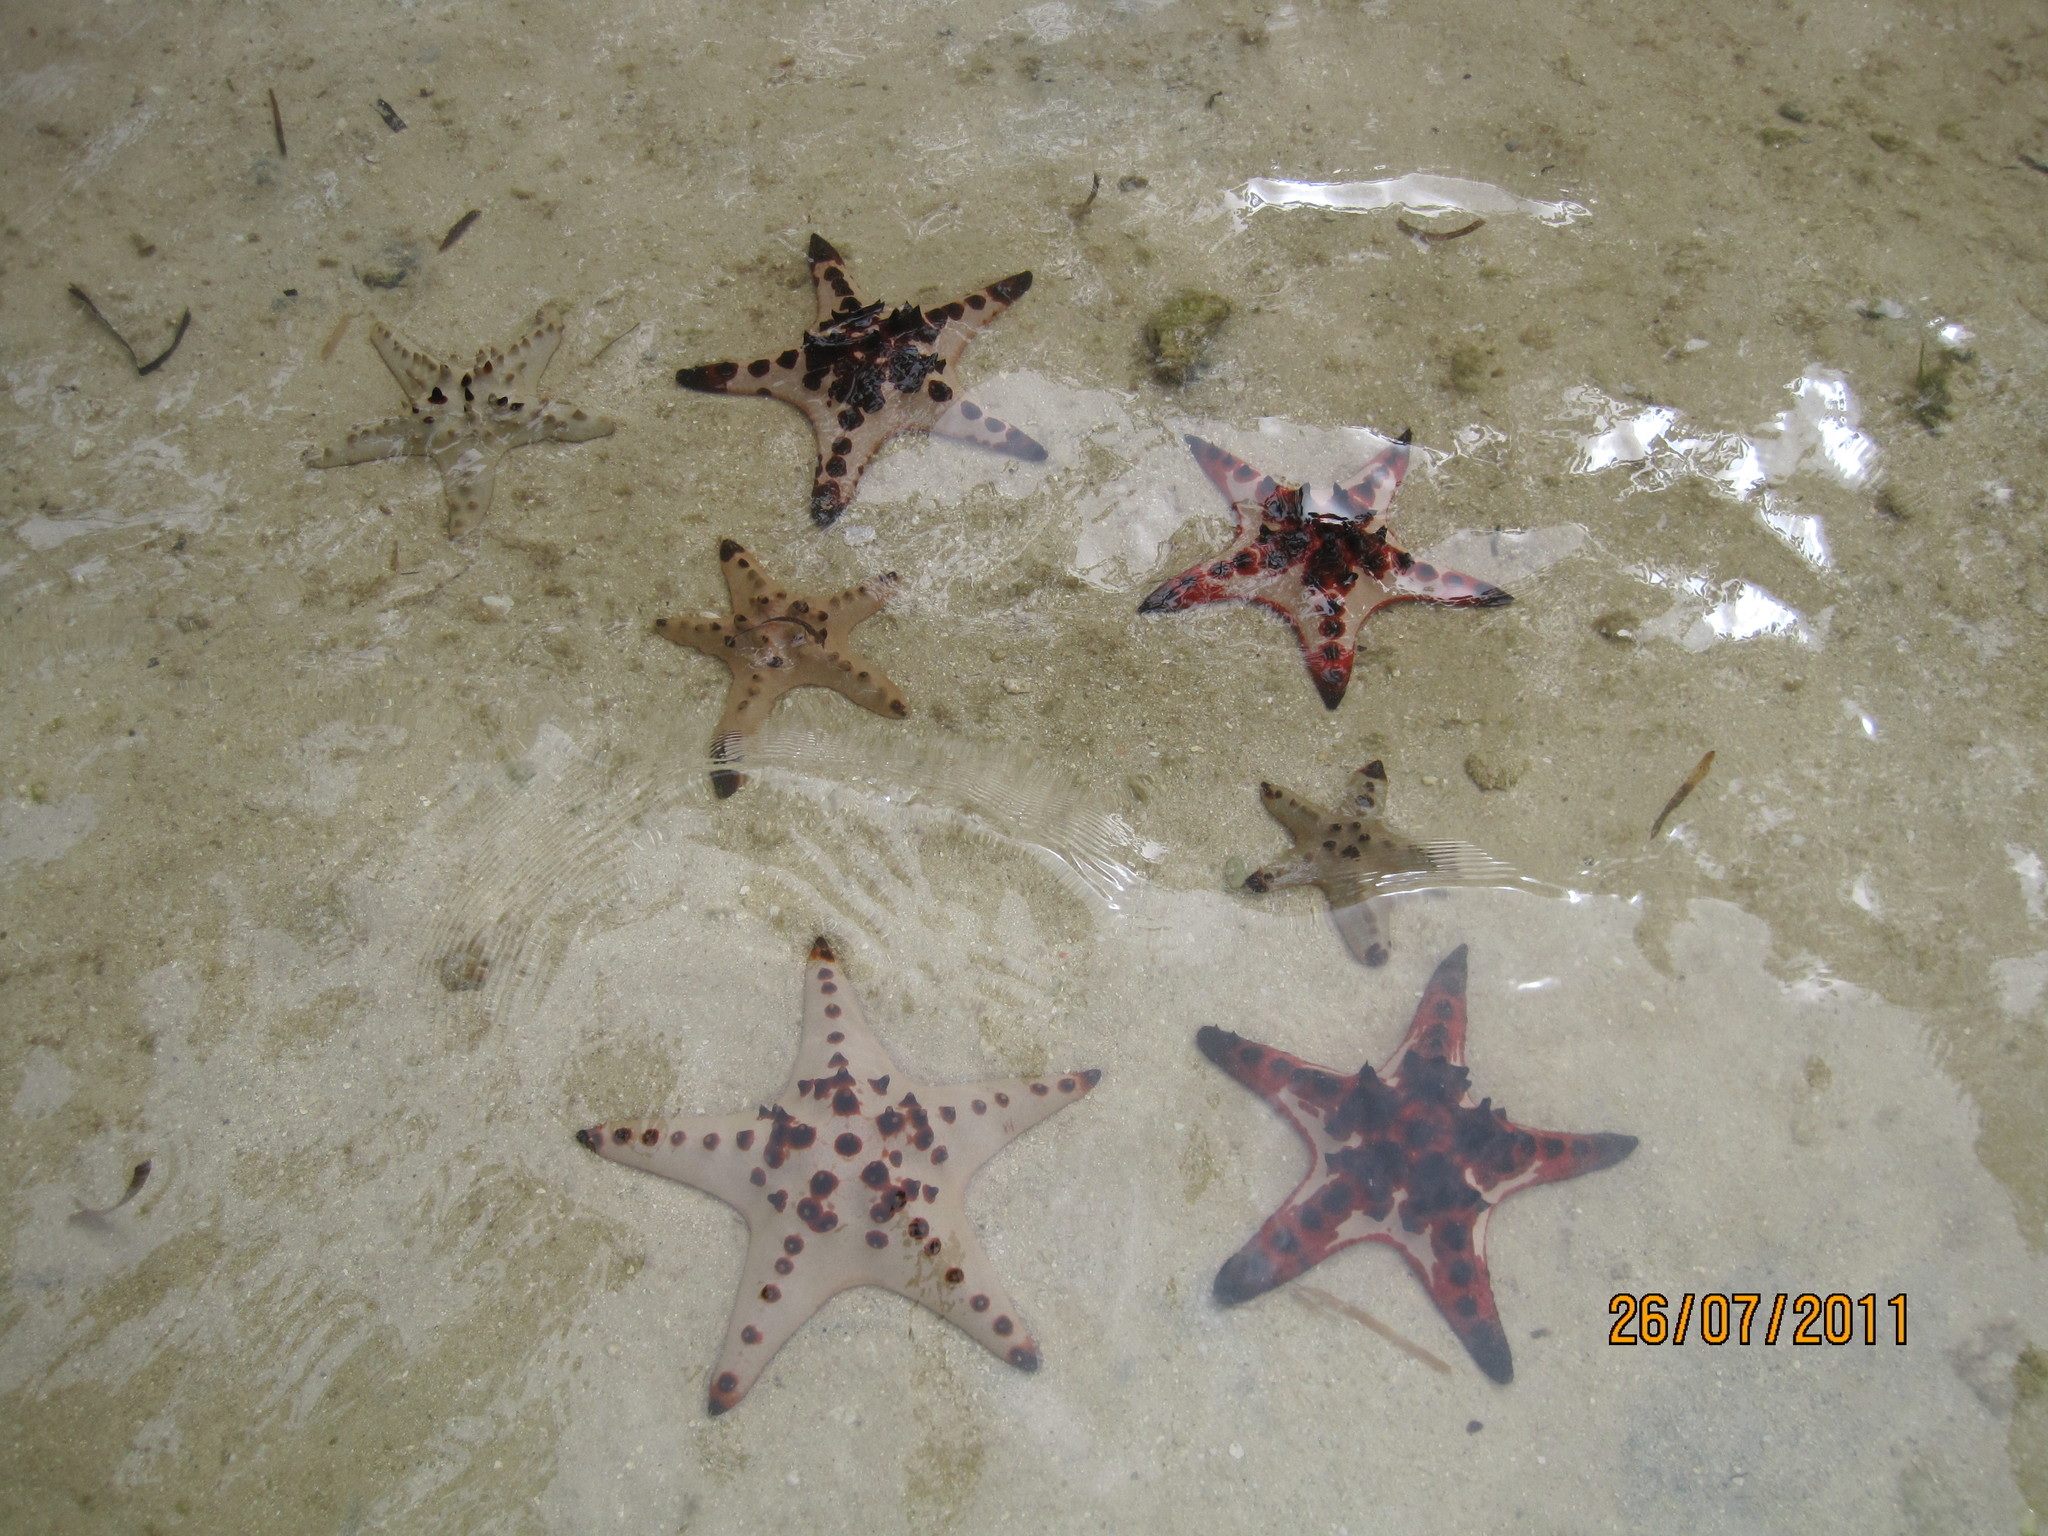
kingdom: Animalia
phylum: Echinodermata
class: Asteroidea
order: Valvatida
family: Oreasteridae
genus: Protoreaster
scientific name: Protoreaster nodosus
